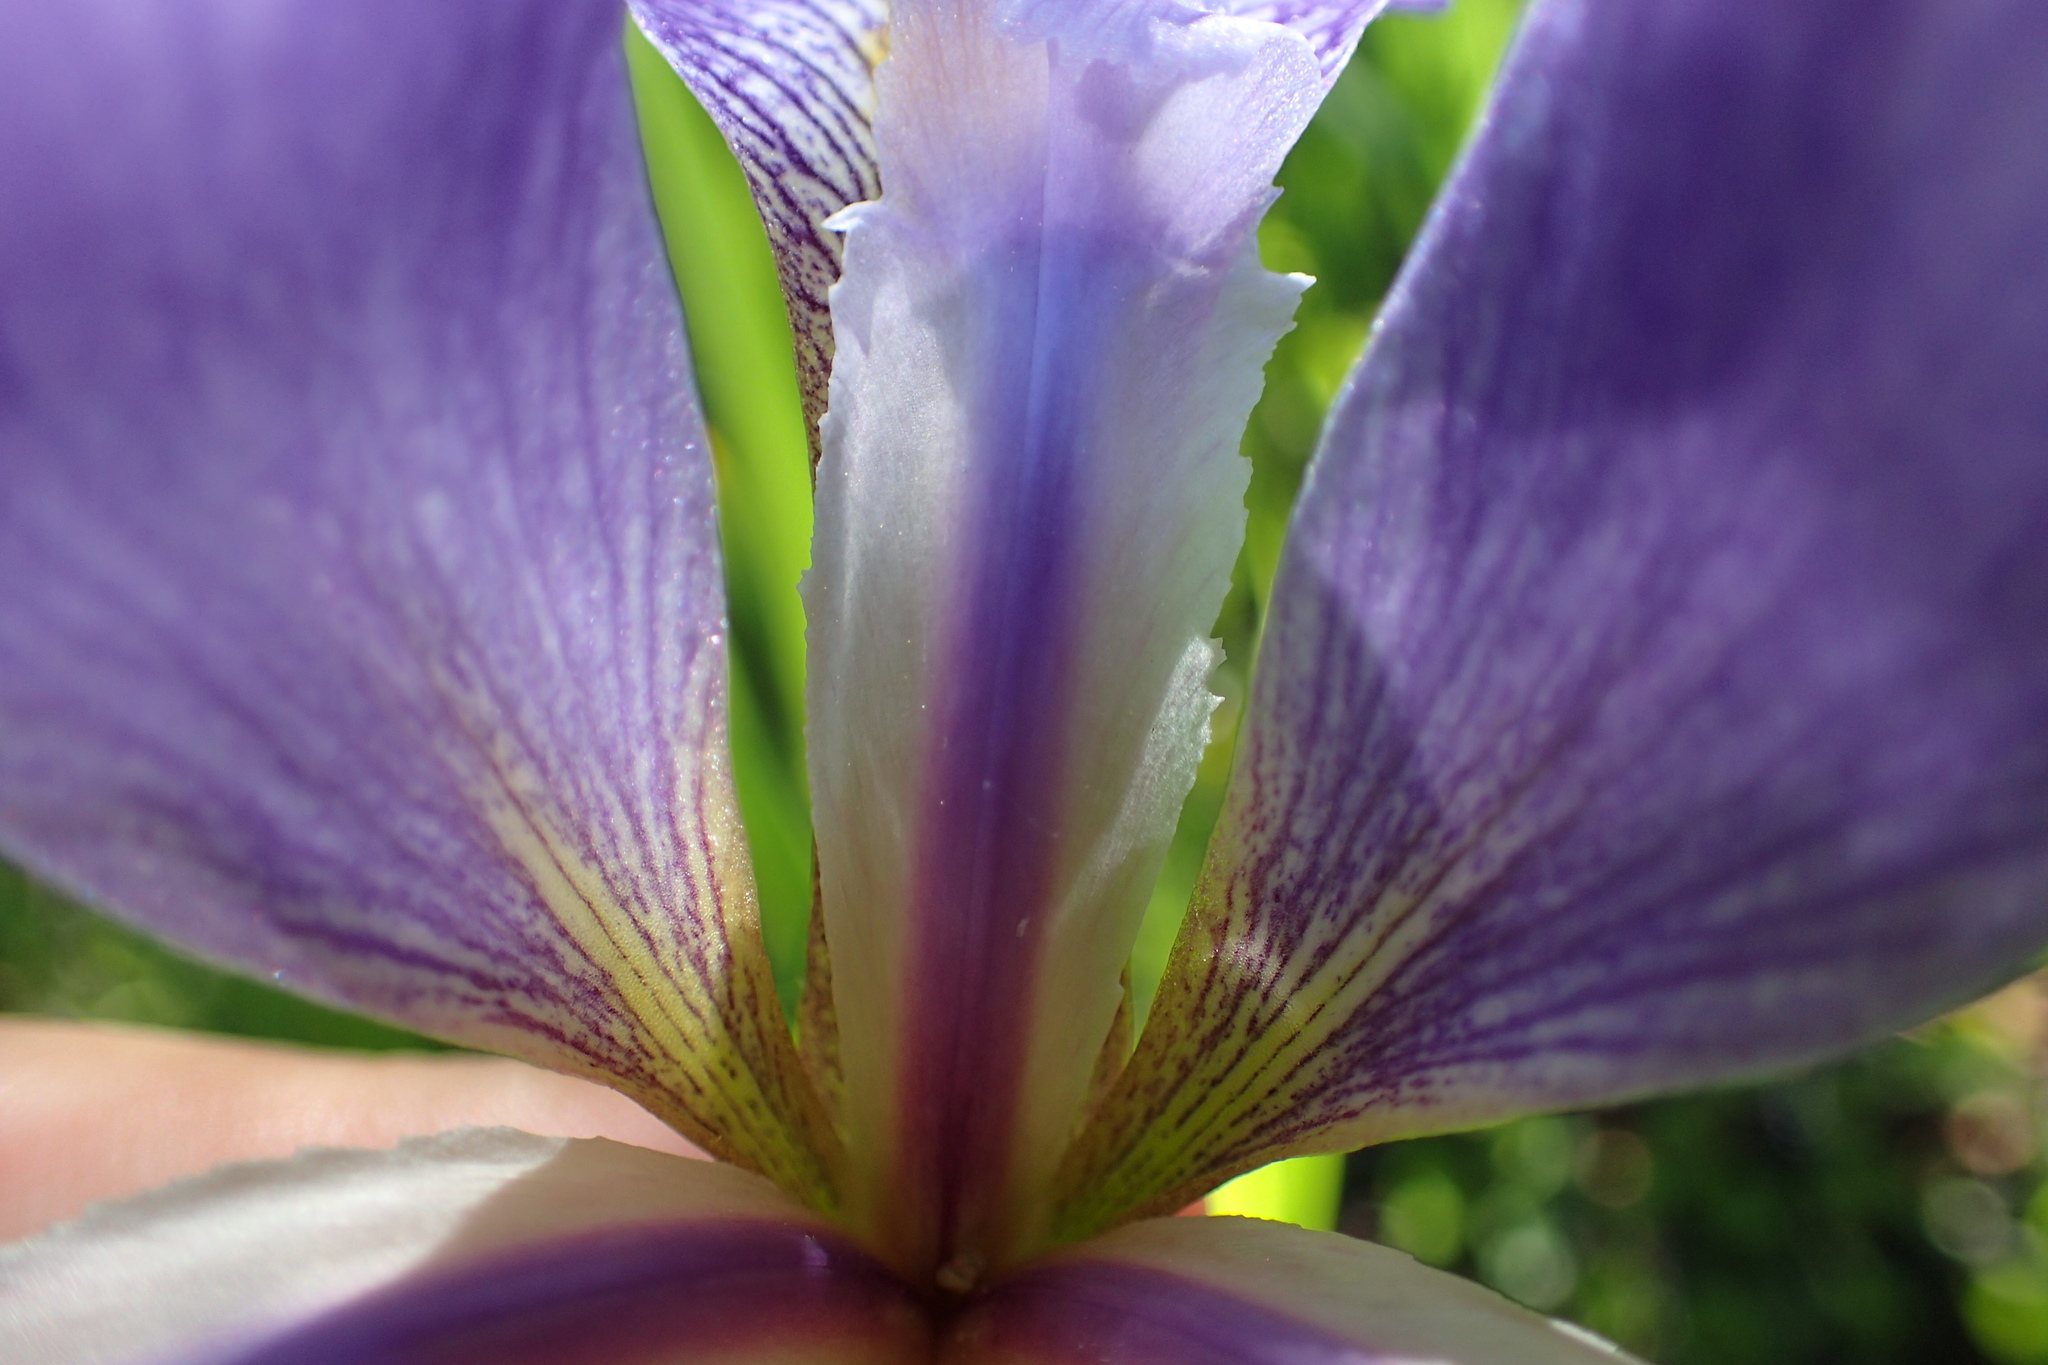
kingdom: Plantae
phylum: Tracheophyta
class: Liliopsida
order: Asparagales
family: Iridaceae
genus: Iris
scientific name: Iris virginica
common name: Southern blue flag
